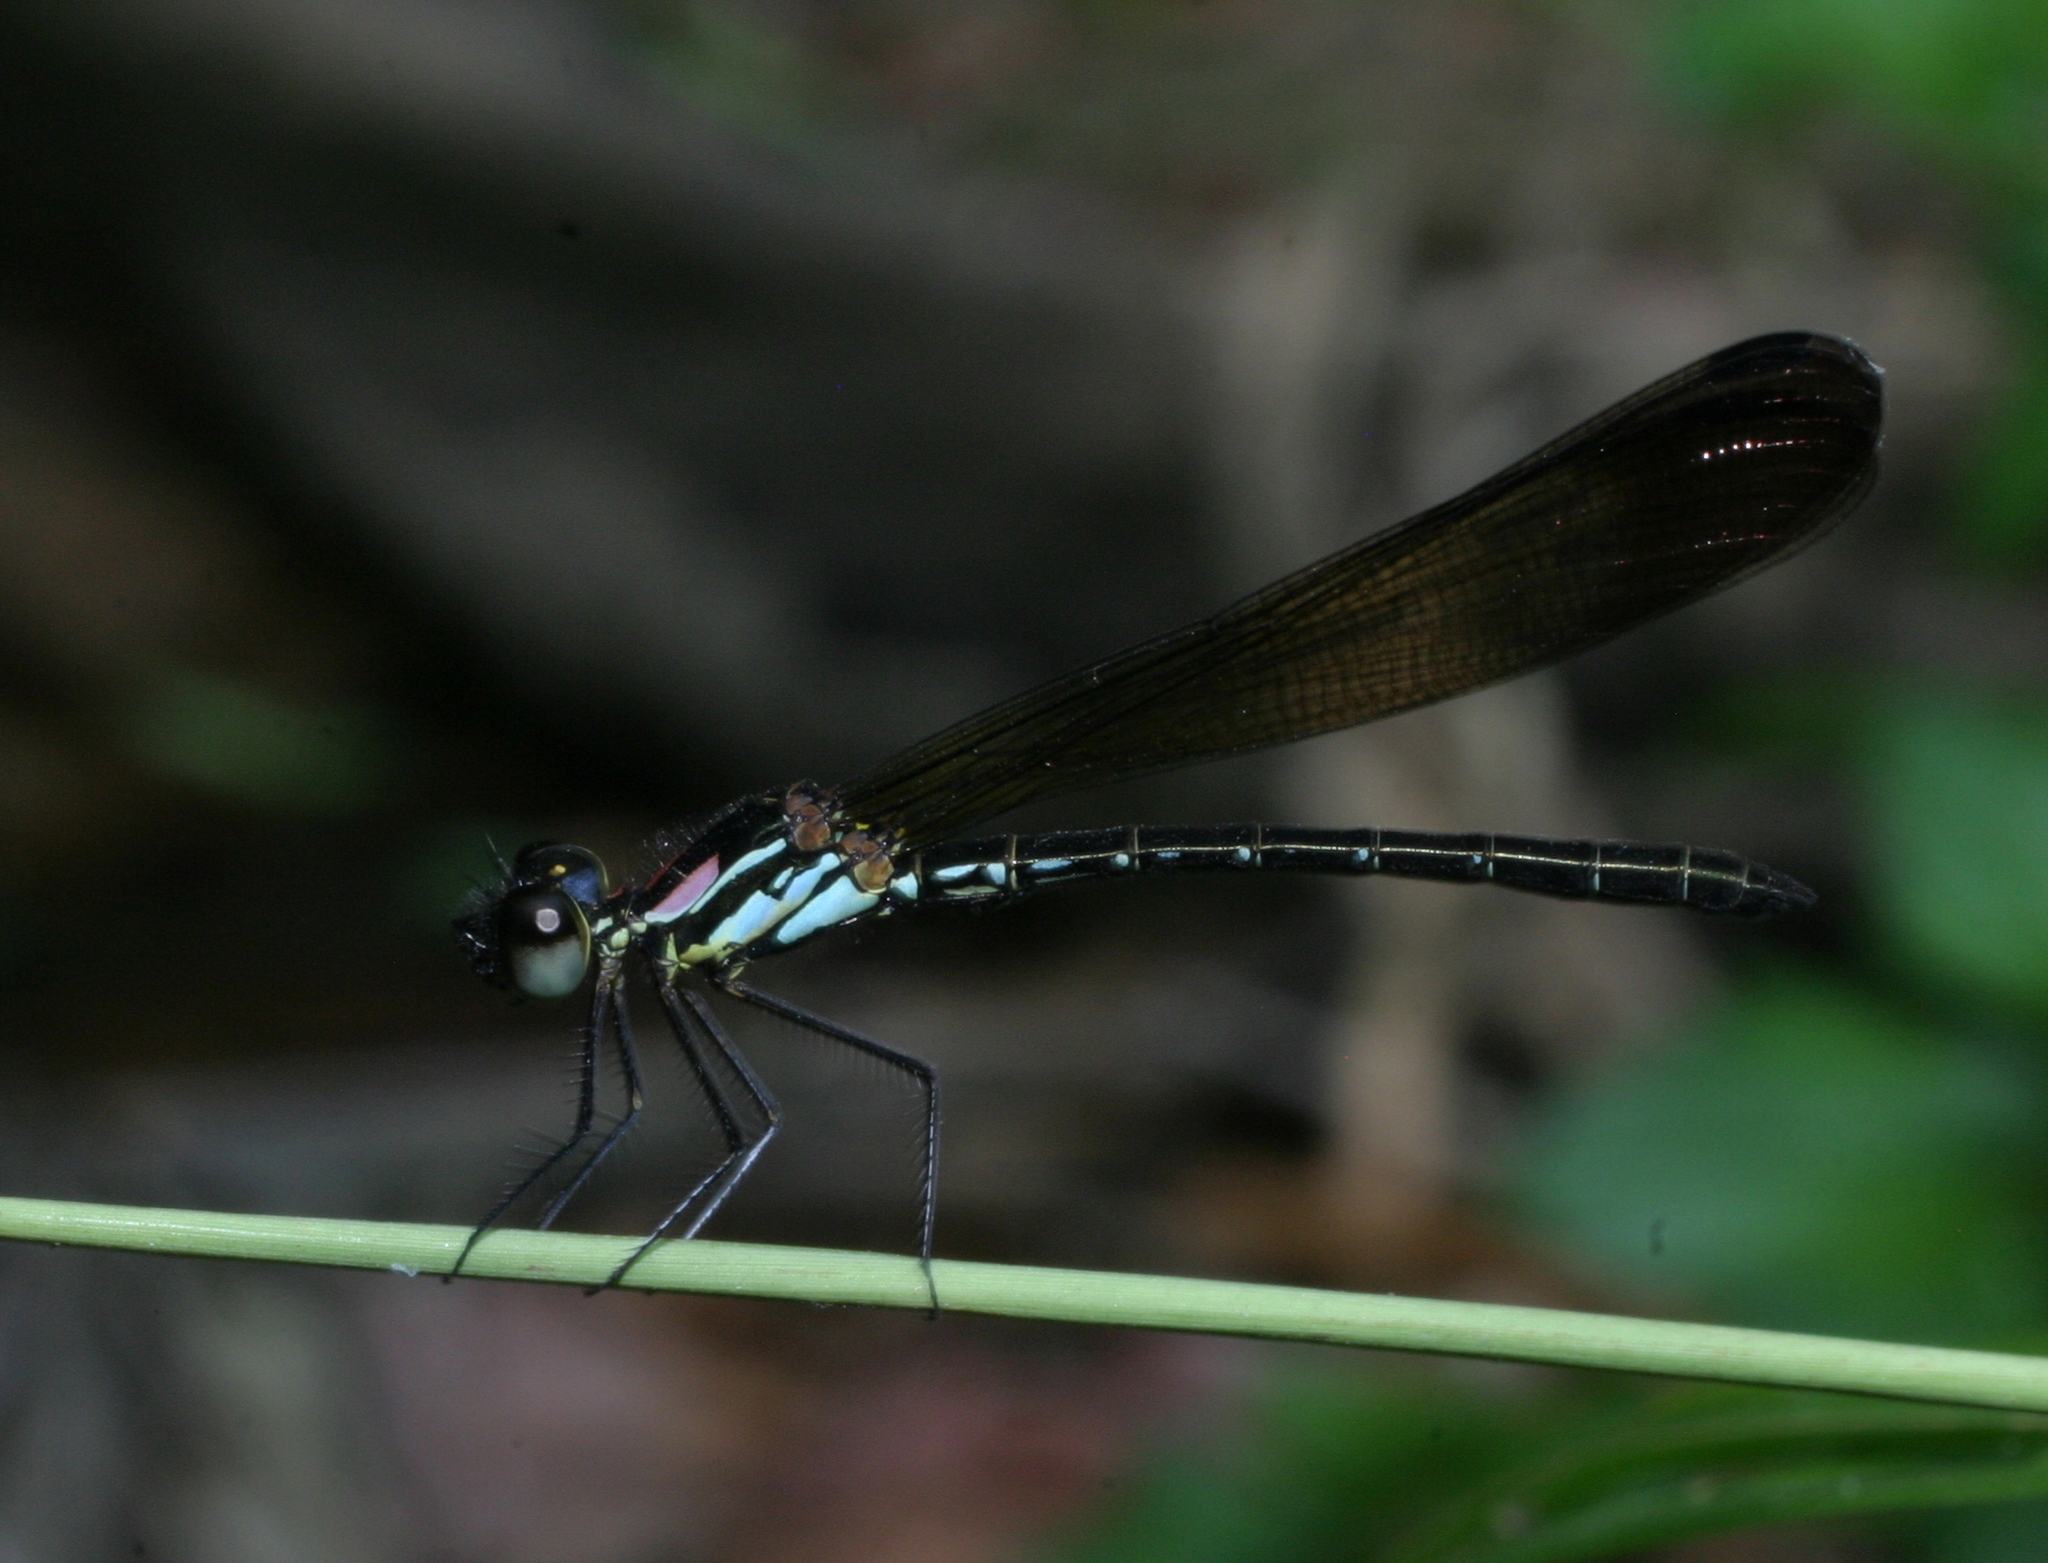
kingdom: Animalia
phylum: Arthropoda
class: Insecta
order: Odonata
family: Chlorocyphidae
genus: Heliocypha
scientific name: Heliocypha biforata
